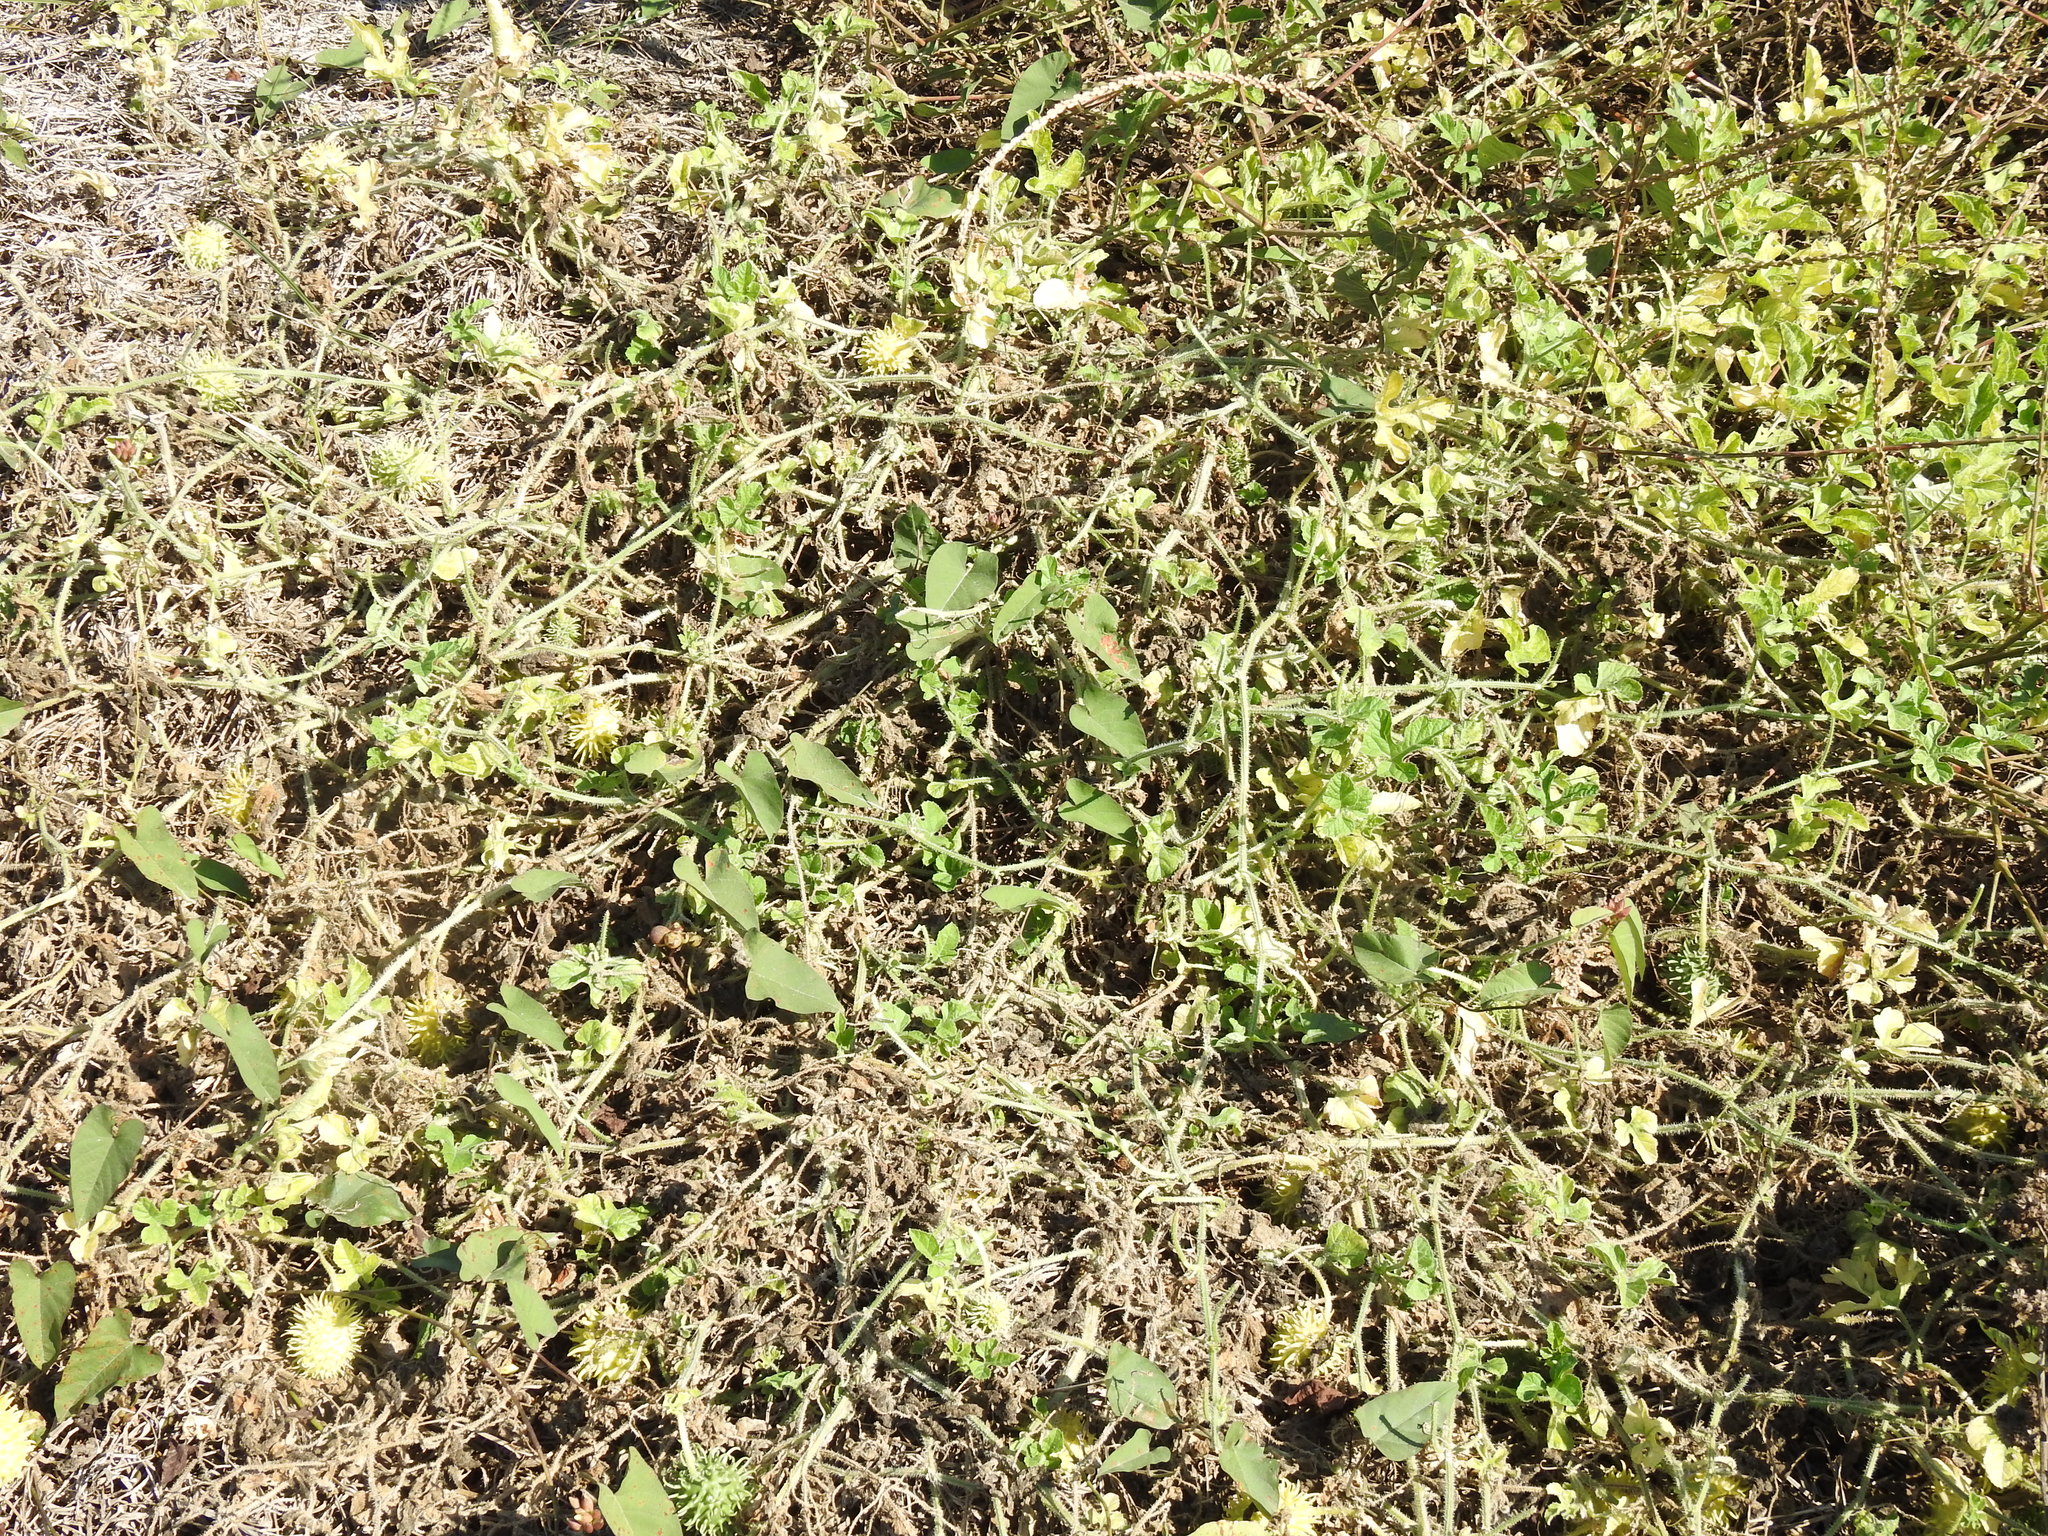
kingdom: Plantae
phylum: Tracheophyta
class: Magnoliopsida
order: Cucurbitales
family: Cucurbitaceae
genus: Cucumis
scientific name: Cucumis anguria
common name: West indian gherkin
